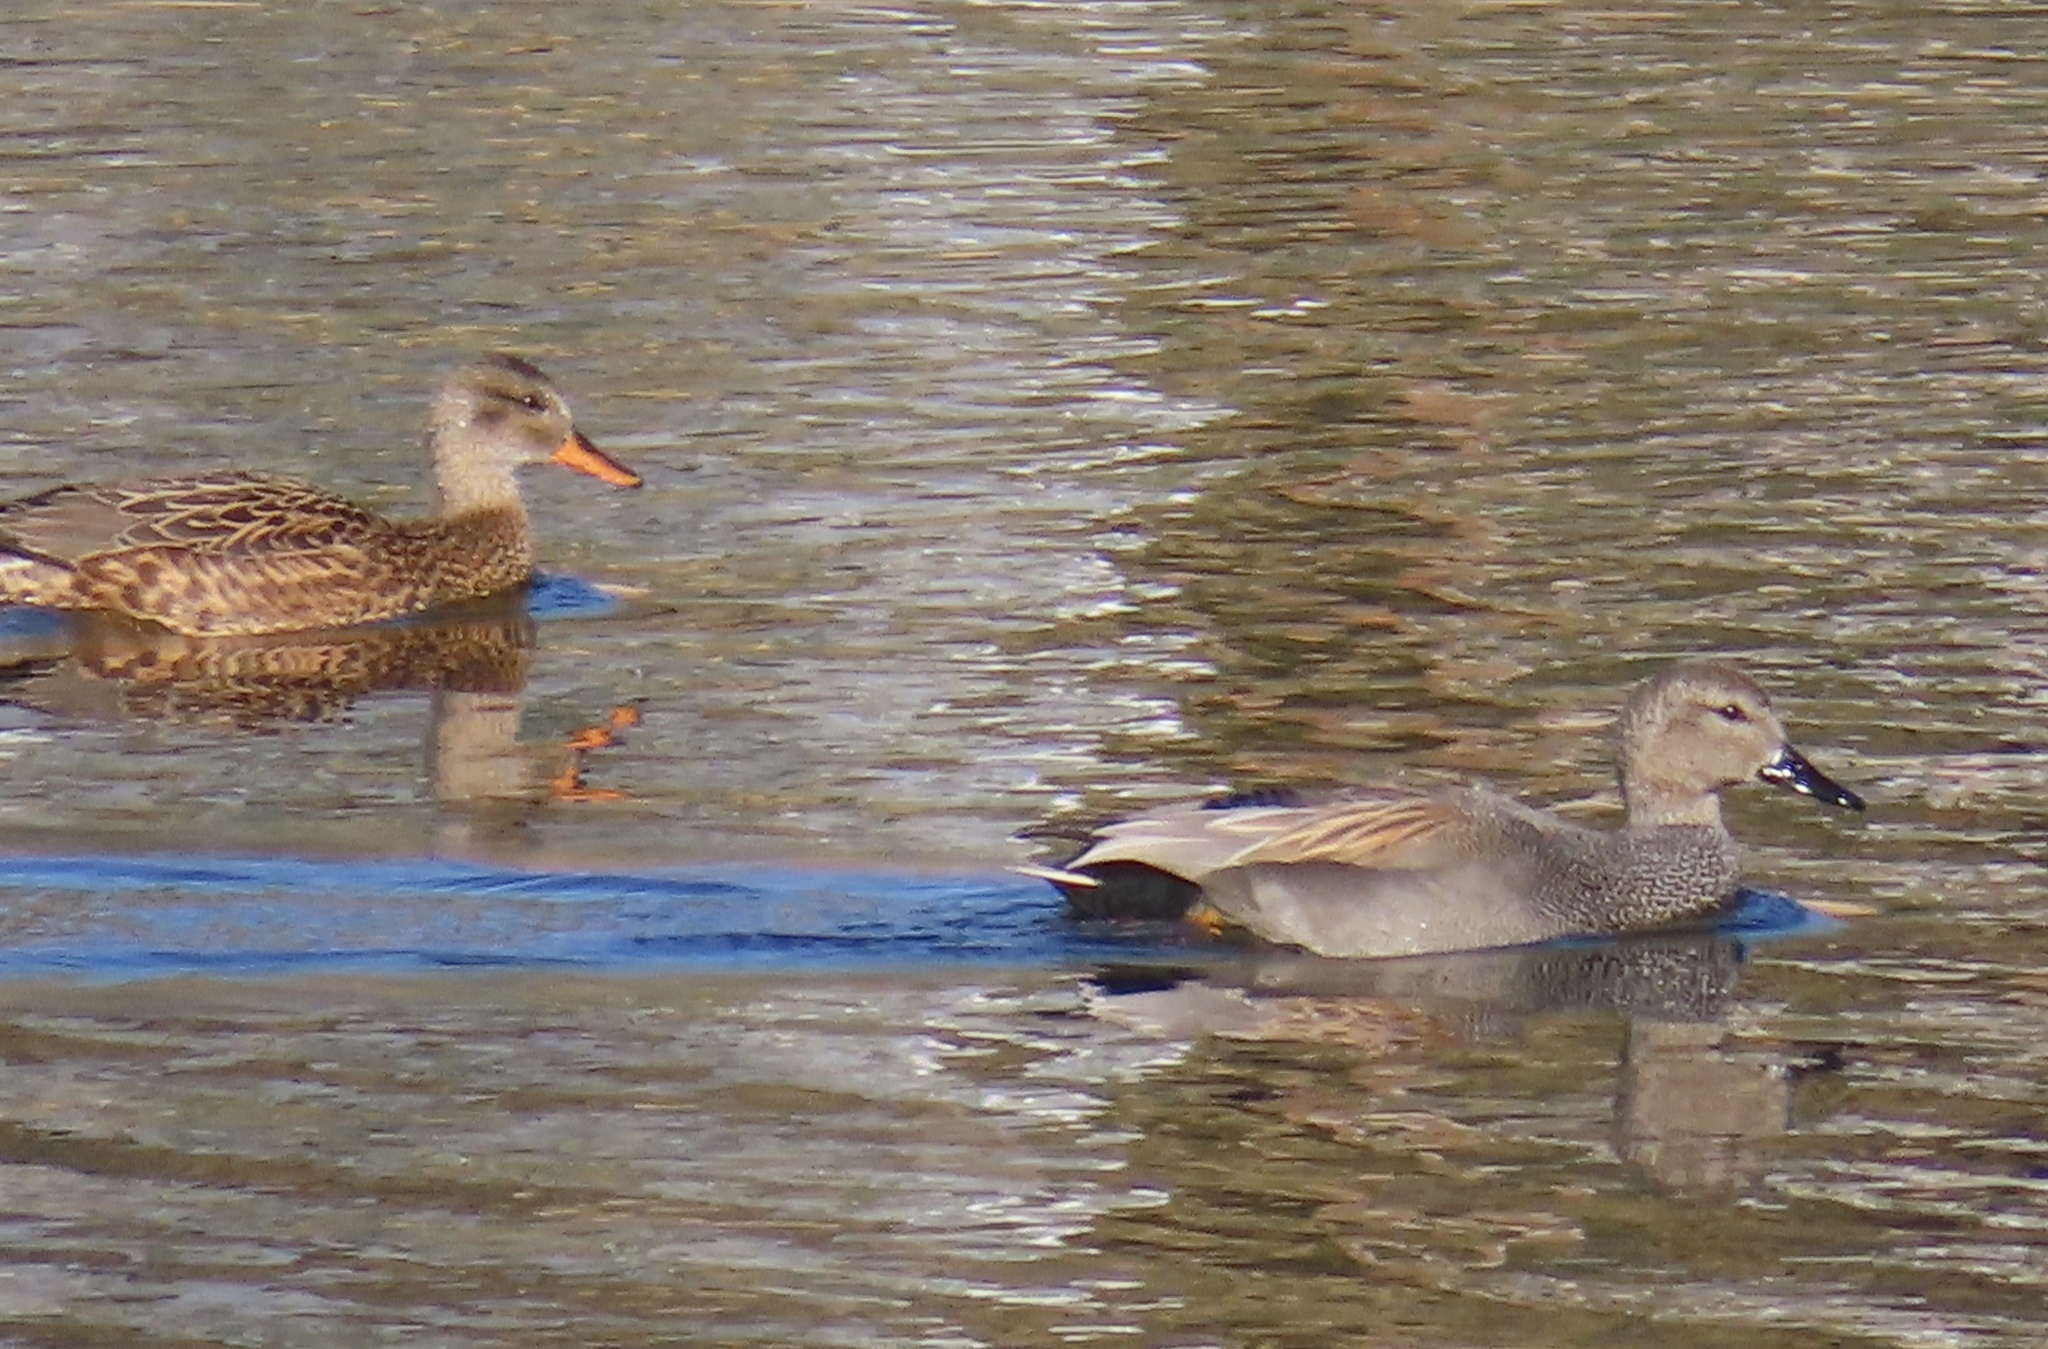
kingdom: Animalia
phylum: Chordata
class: Aves
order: Anseriformes
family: Anatidae
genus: Mareca
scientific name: Mareca strepera
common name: Gadwall
